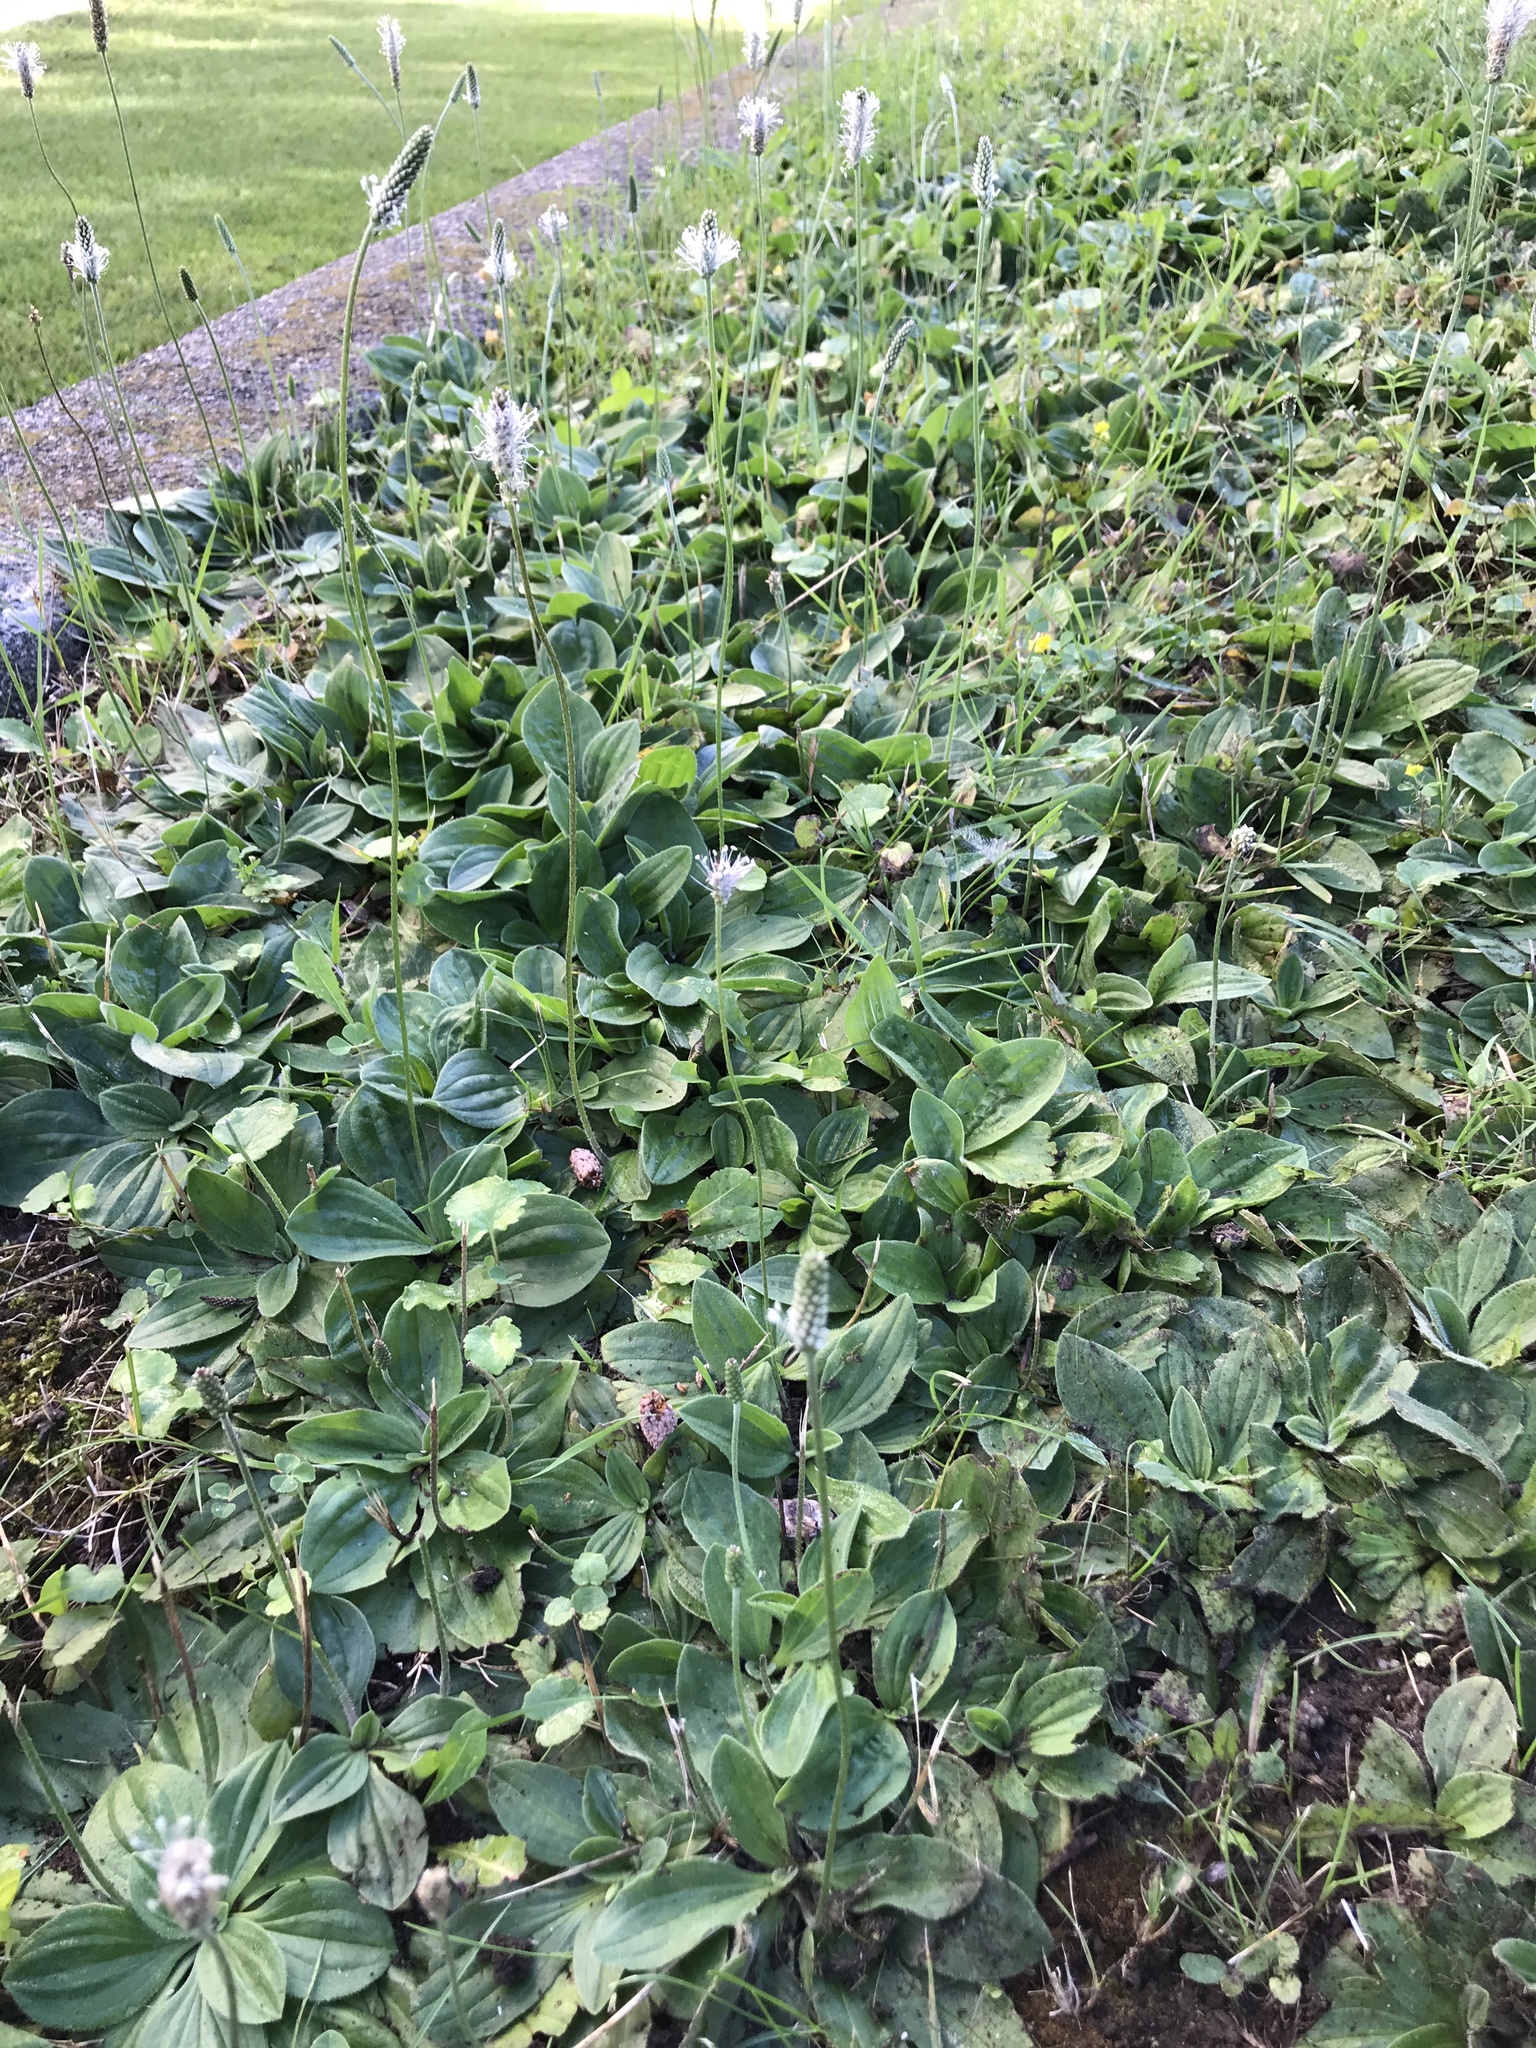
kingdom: Plantae
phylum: Tracheophyta
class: Magnoliopsida
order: Lamiales
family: Plantaginaceae
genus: Plantago
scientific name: Plantago media
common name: Hoary plantain
